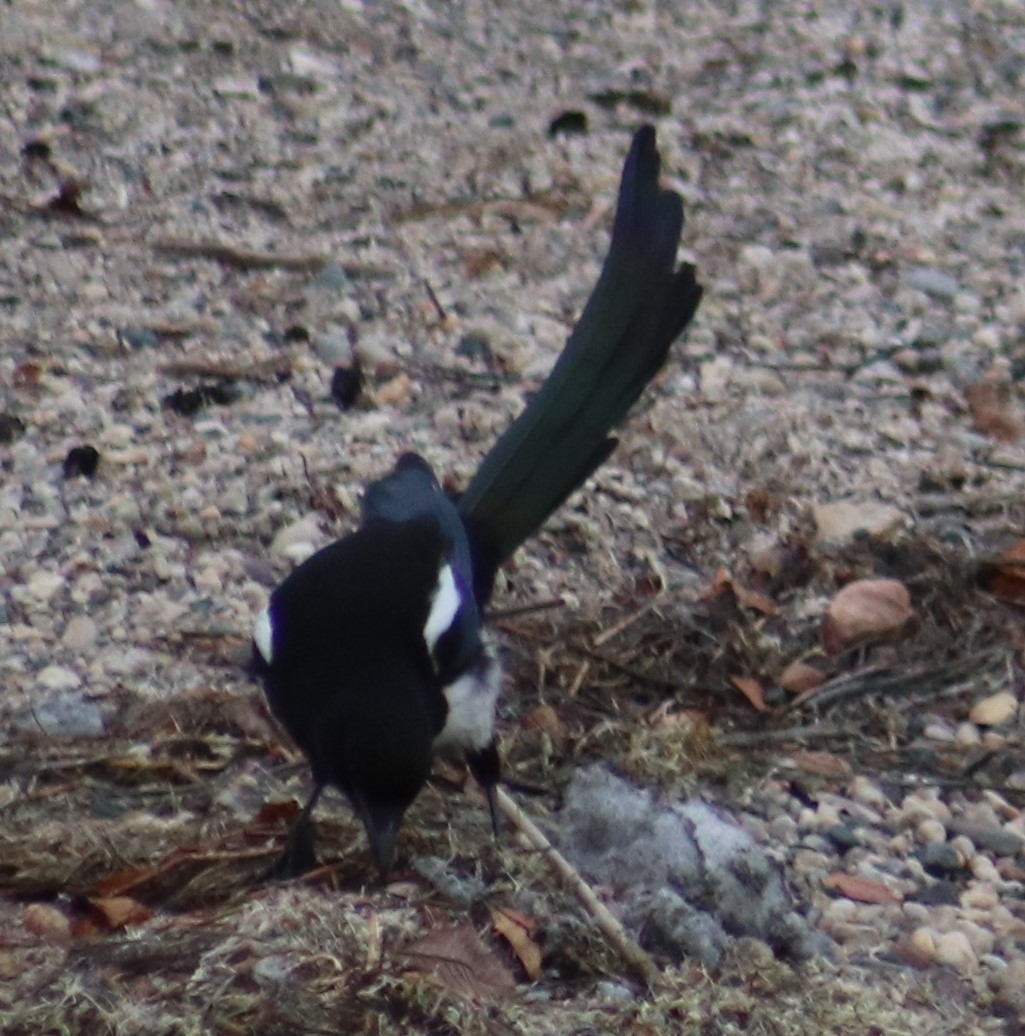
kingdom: Animalia
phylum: Chordata
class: Aves
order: Passeriformes
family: Corvidae
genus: Pica
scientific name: Pica hudsonia
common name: Black-billed magpie
